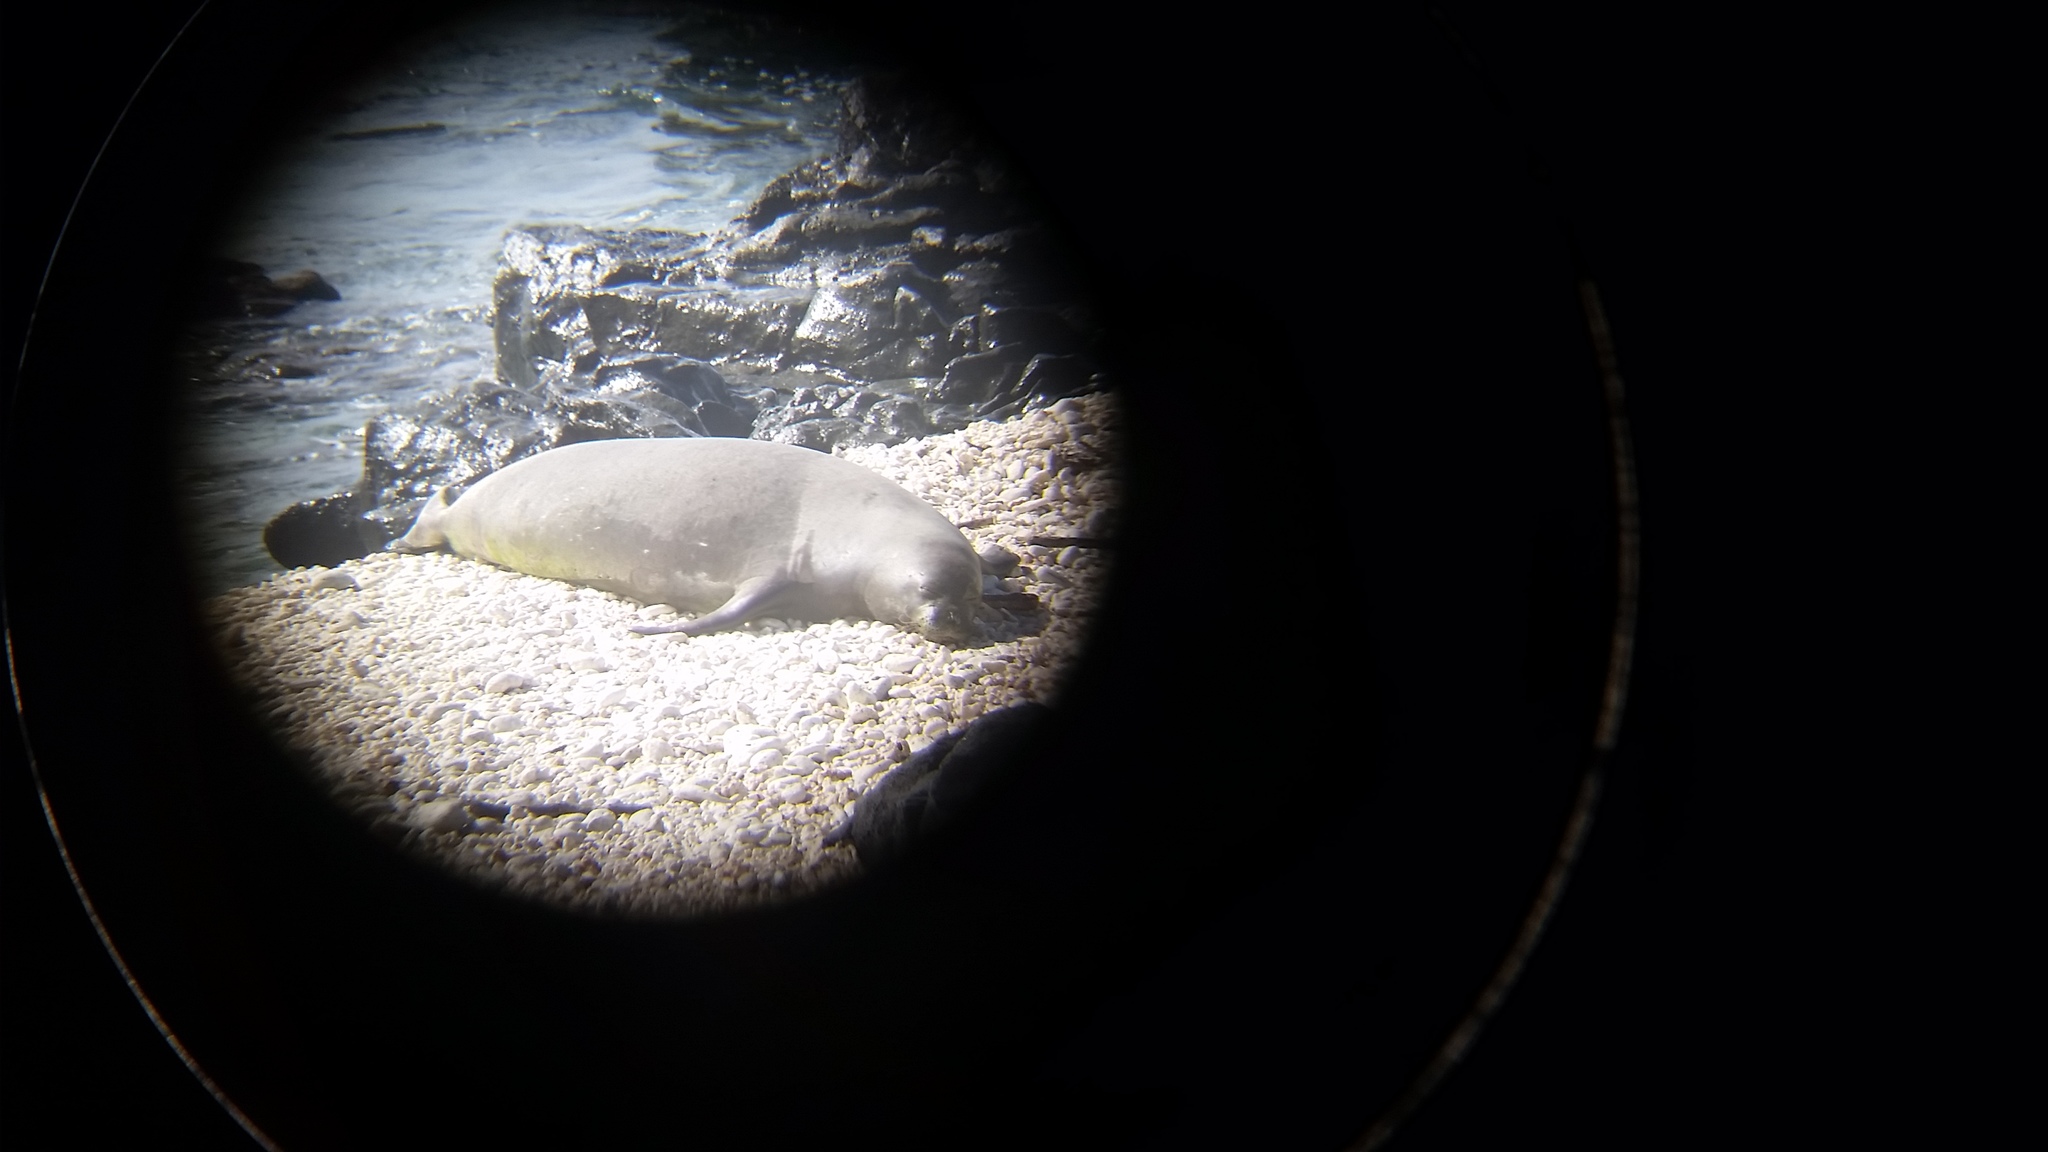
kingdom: Animalia
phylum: Chordata
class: Mammalia
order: Carnivora
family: Phocidae
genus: Neomonachus
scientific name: Neomonachus schauinslandi
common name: Hawaiian monk seal
